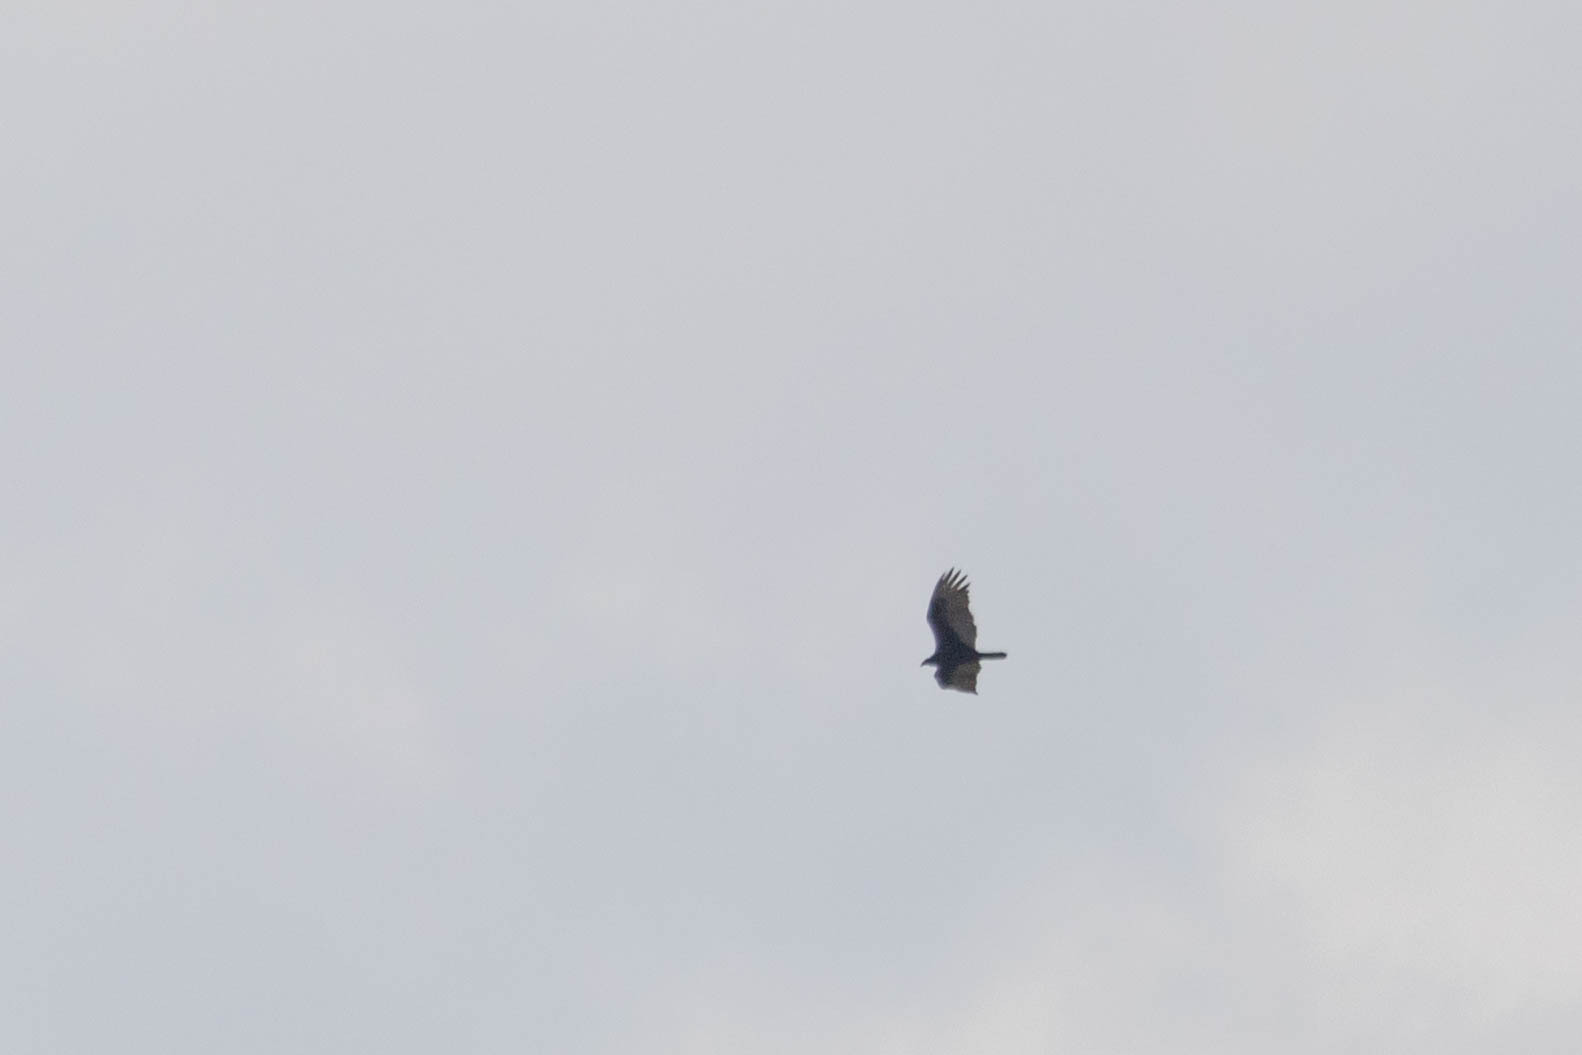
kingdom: Animalia
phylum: Chordata
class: Aves
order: Accipitriformes
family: Cathartidae
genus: Cathartes
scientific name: Cathartes aura
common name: Turkey vulture
